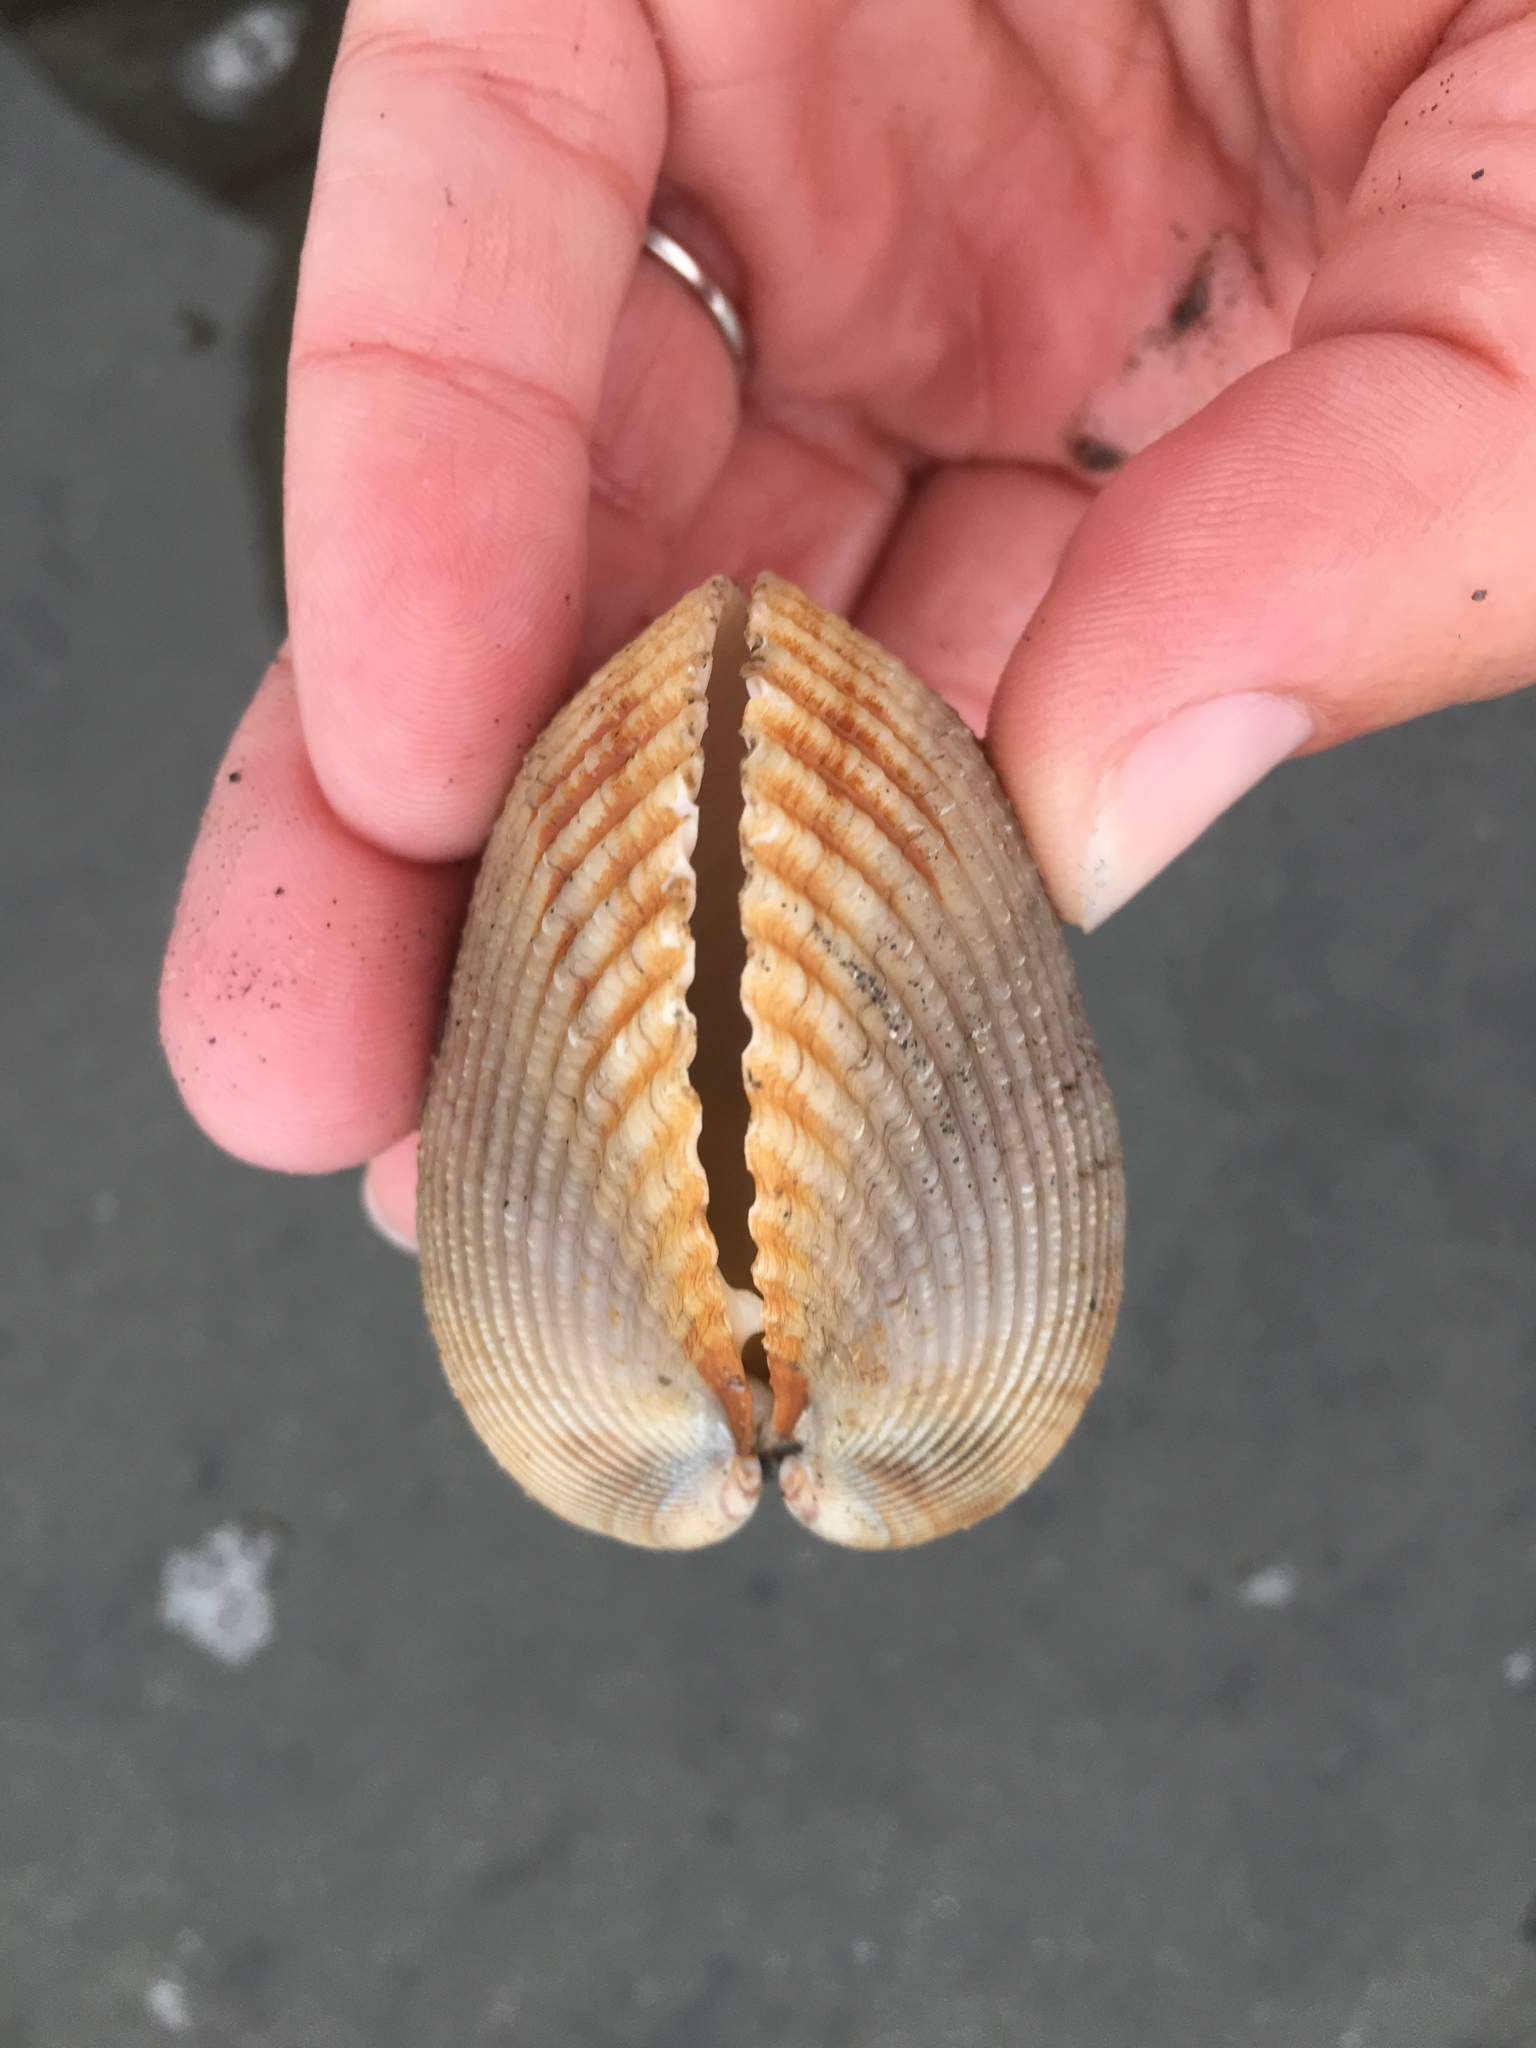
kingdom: Animalia
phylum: Mollusca
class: Bivalvia
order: Cardiida
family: Cardiidae
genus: Clinocardium
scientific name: Clinocardium nuttallii
